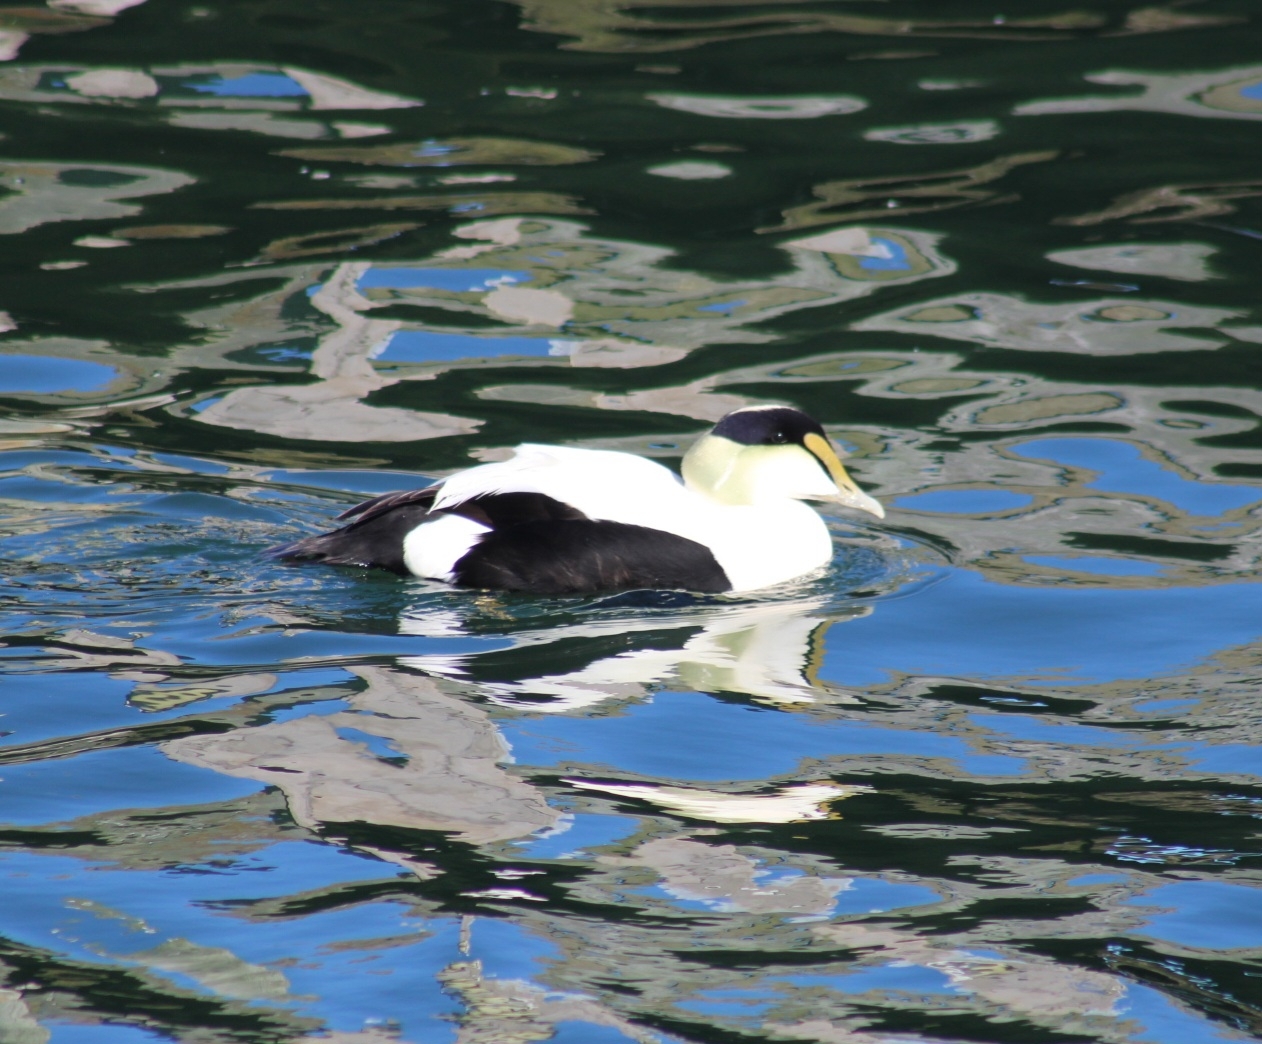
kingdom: Animalia
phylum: Chordata
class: Aves
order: Anseriformes
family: Anatidae
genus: Somateria
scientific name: Somateria mollissima
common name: Common eider
